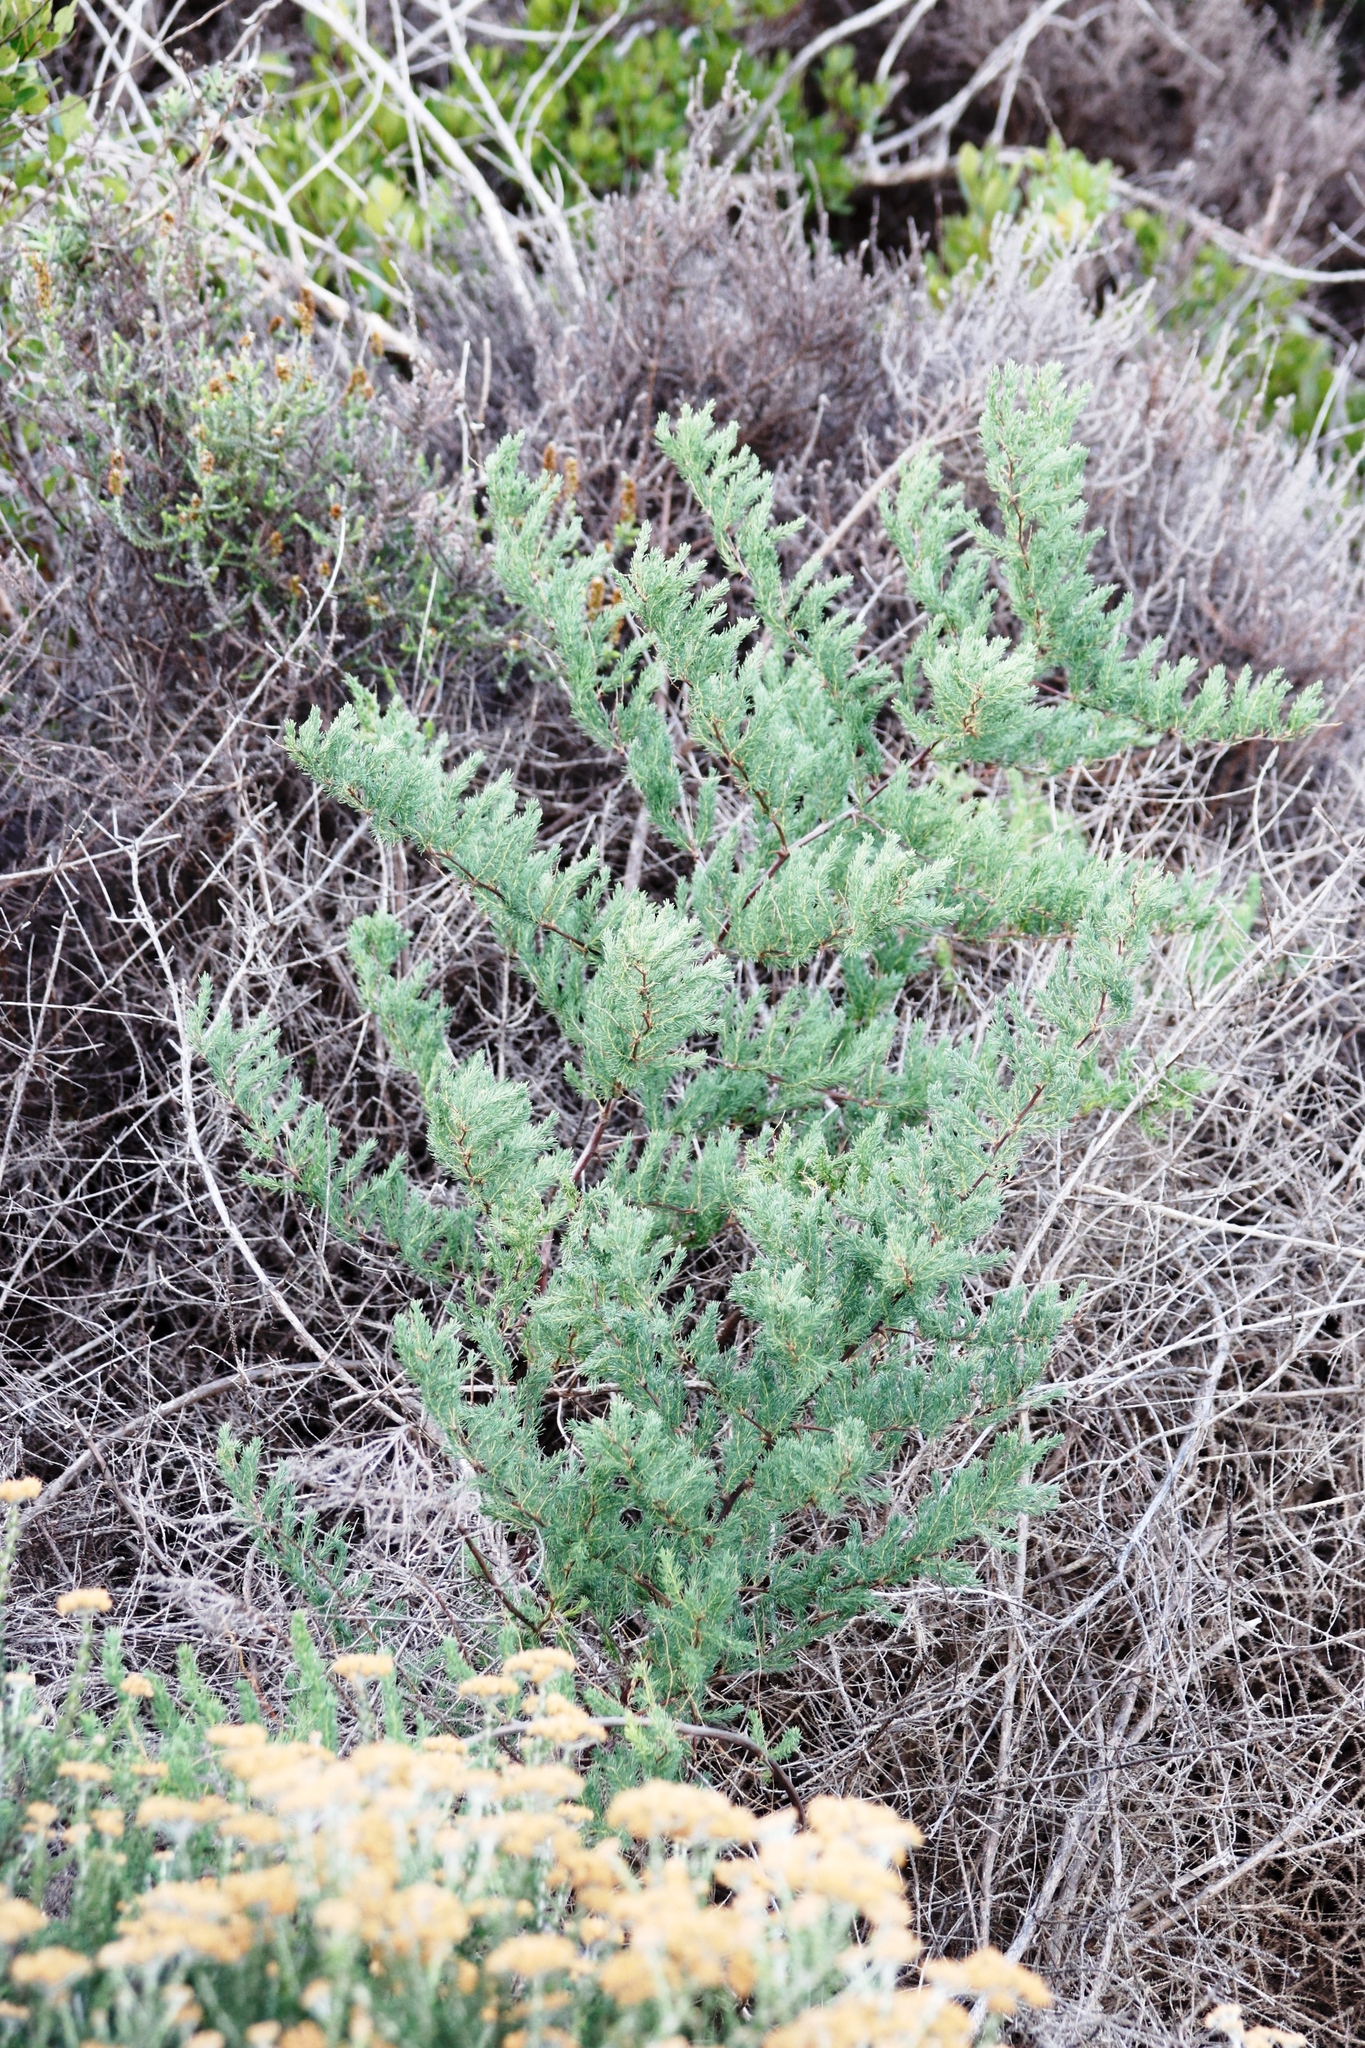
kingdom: Plantae
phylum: Tracheophyta
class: Liliopsida
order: Asparagales
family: Asparagaceae
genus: Asparagus
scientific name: Asparagus rubicundus
